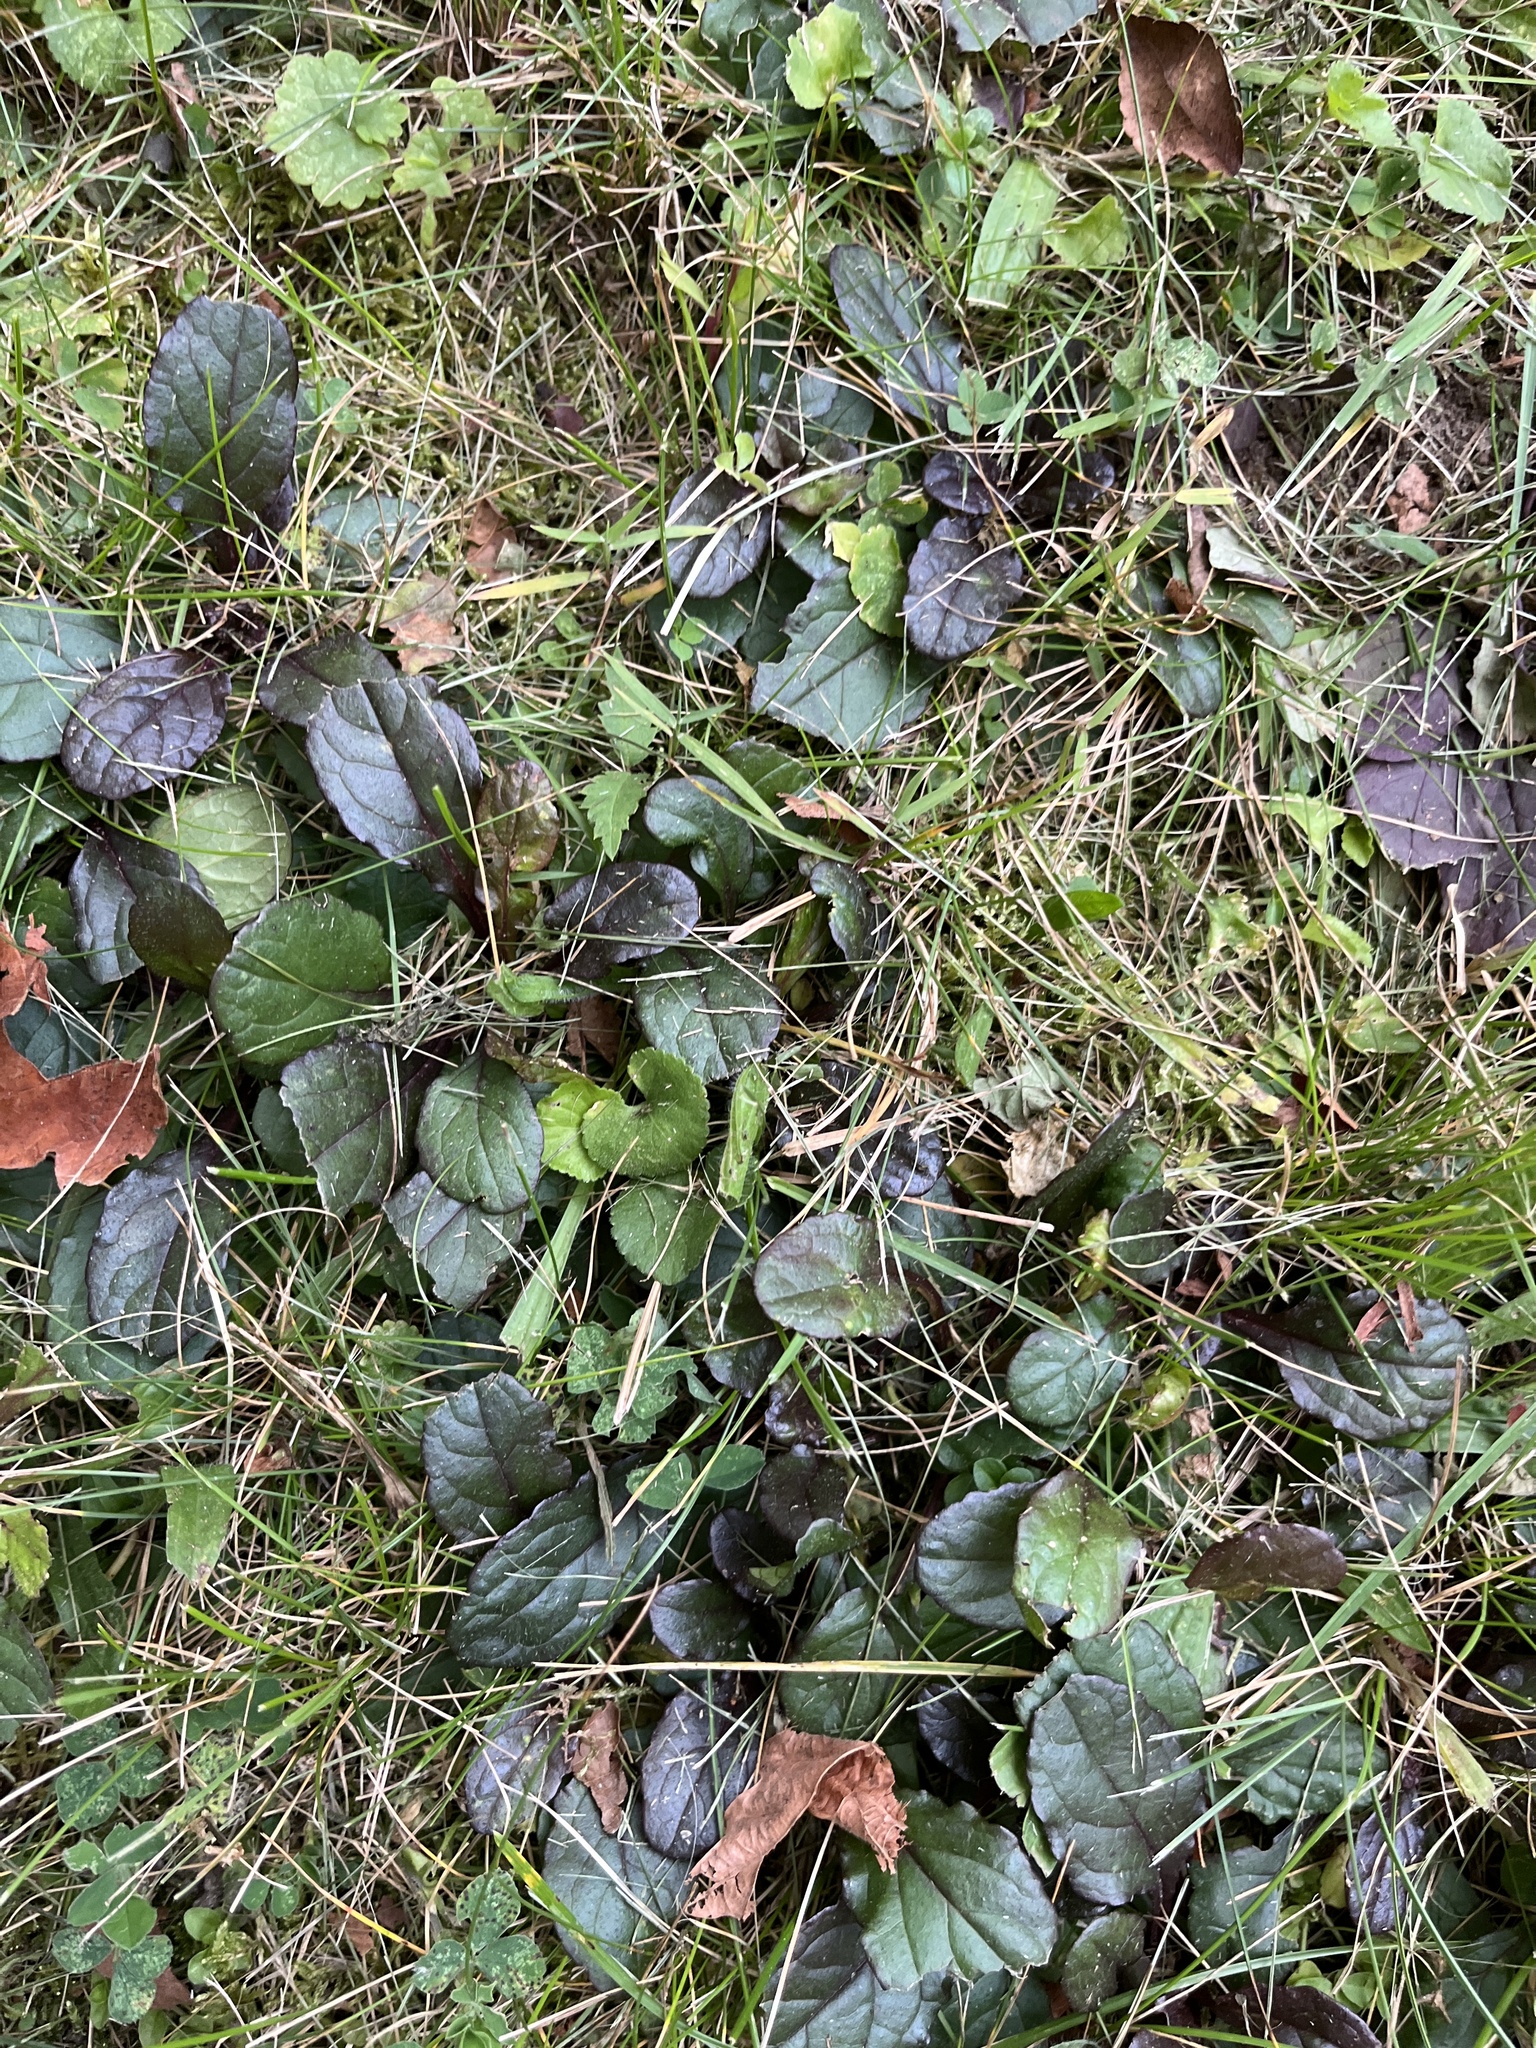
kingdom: Plantae
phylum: Tracheophyta
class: Magnoliopsida
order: Lamiales
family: Lamiaceae
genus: Ajuga
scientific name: Ajuga reptans
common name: Bugle
